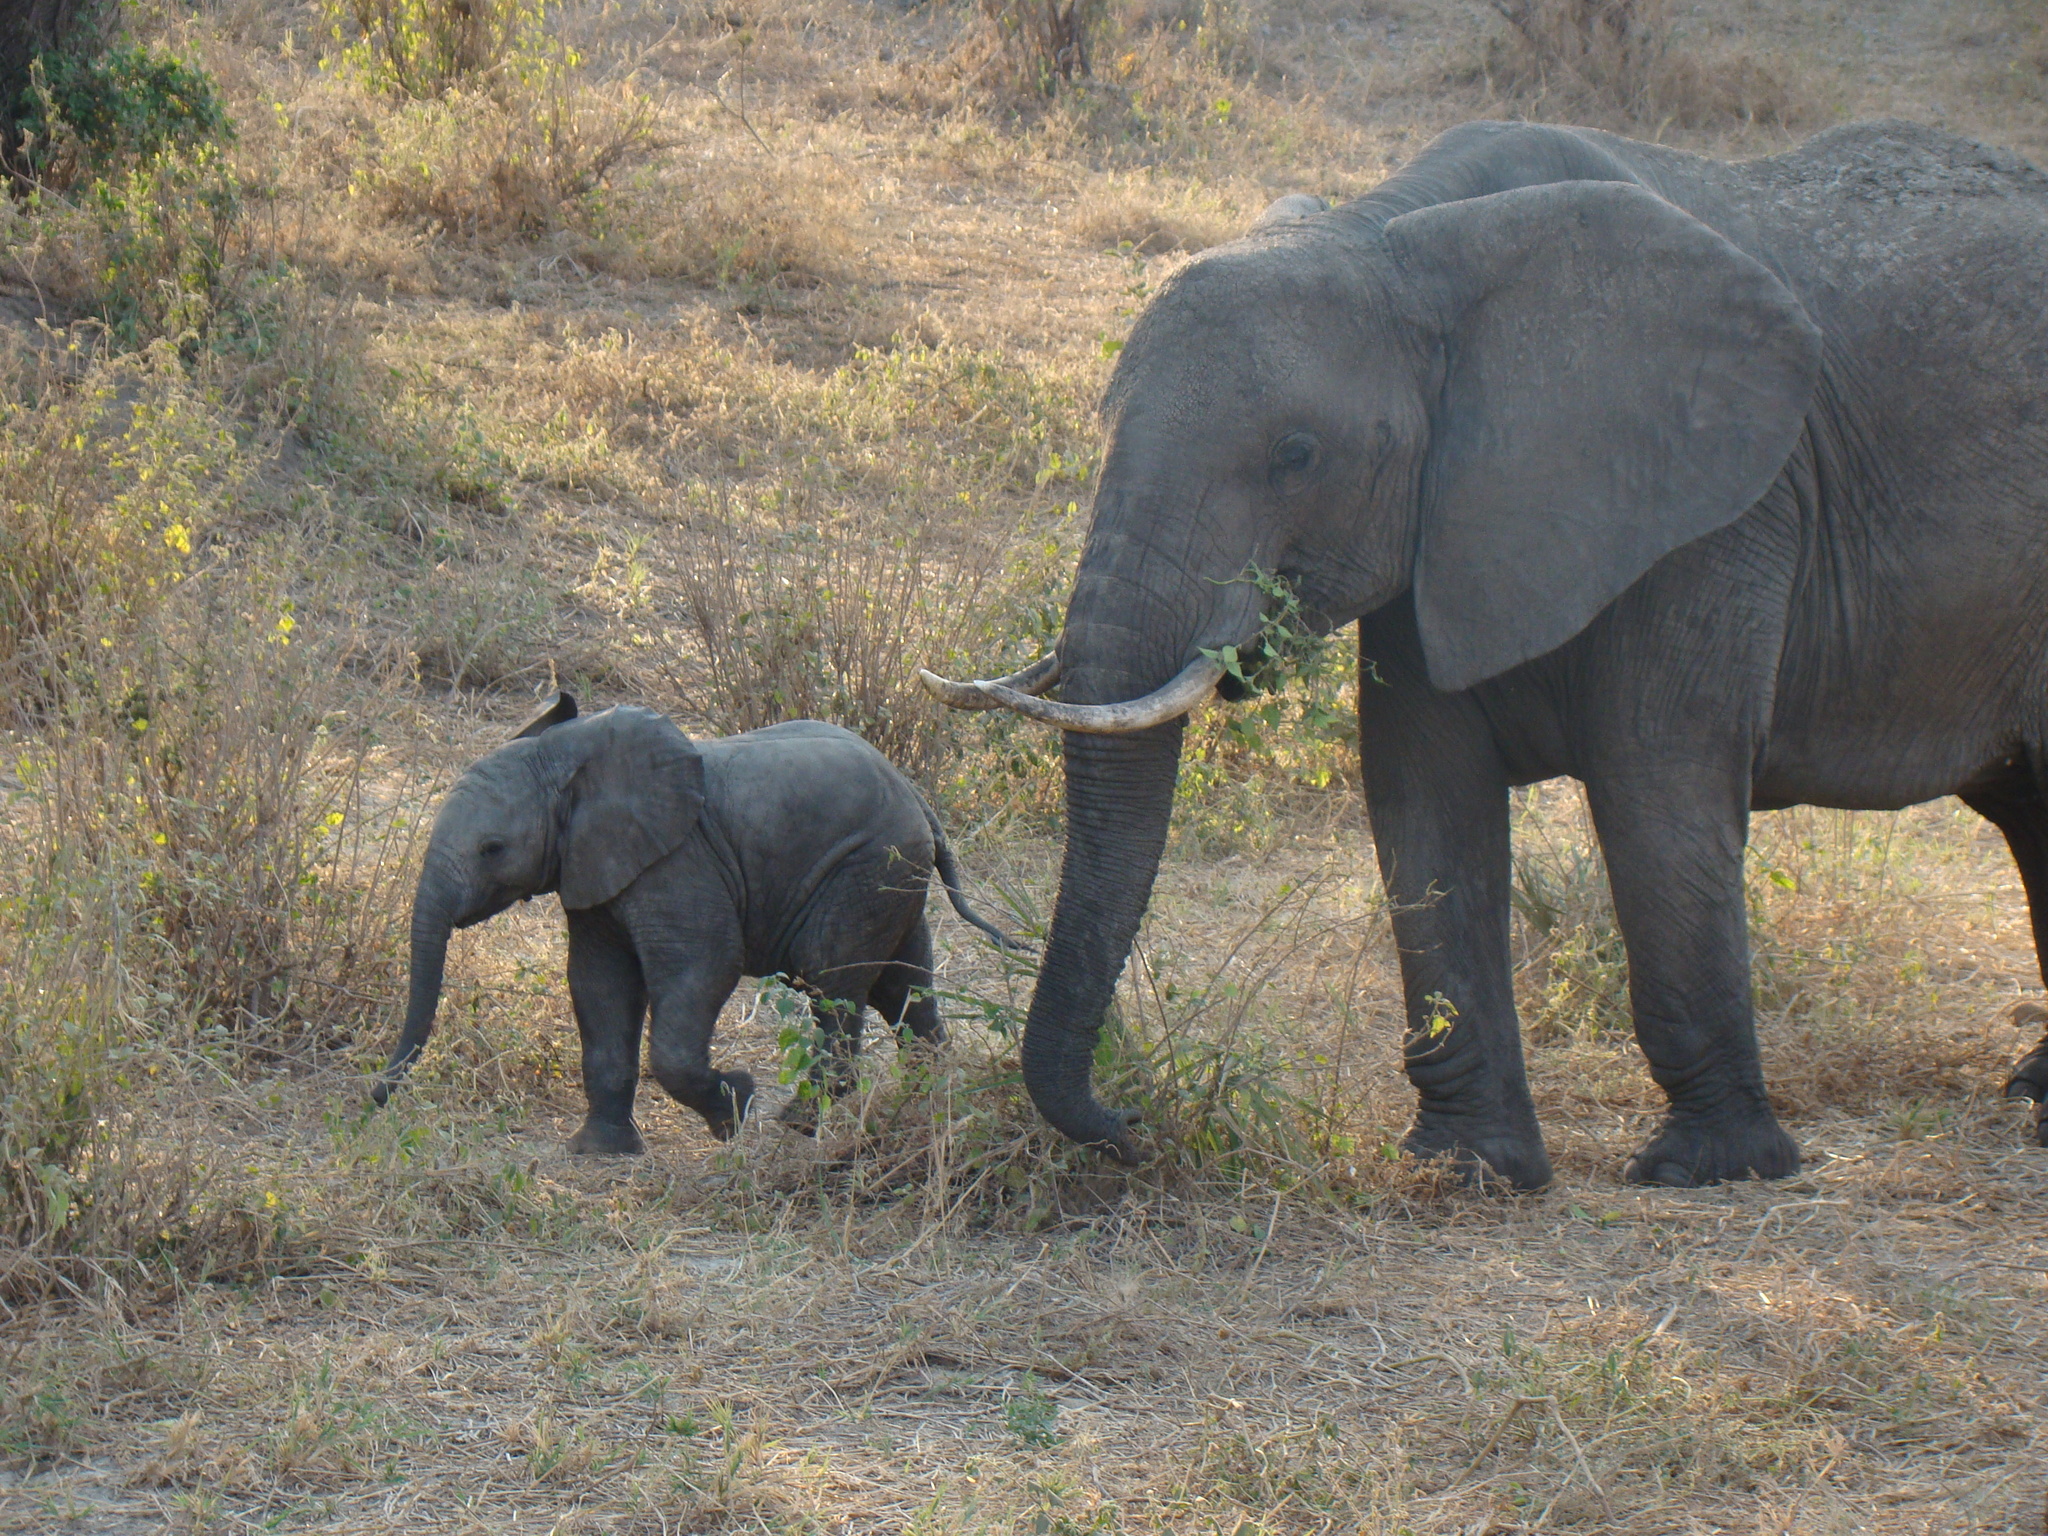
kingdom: Animalia
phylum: Chordata
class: Mammalia
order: Proboscidea
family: Elephantidae
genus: Loxodonta
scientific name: Loxodonta africana
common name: African elephant
